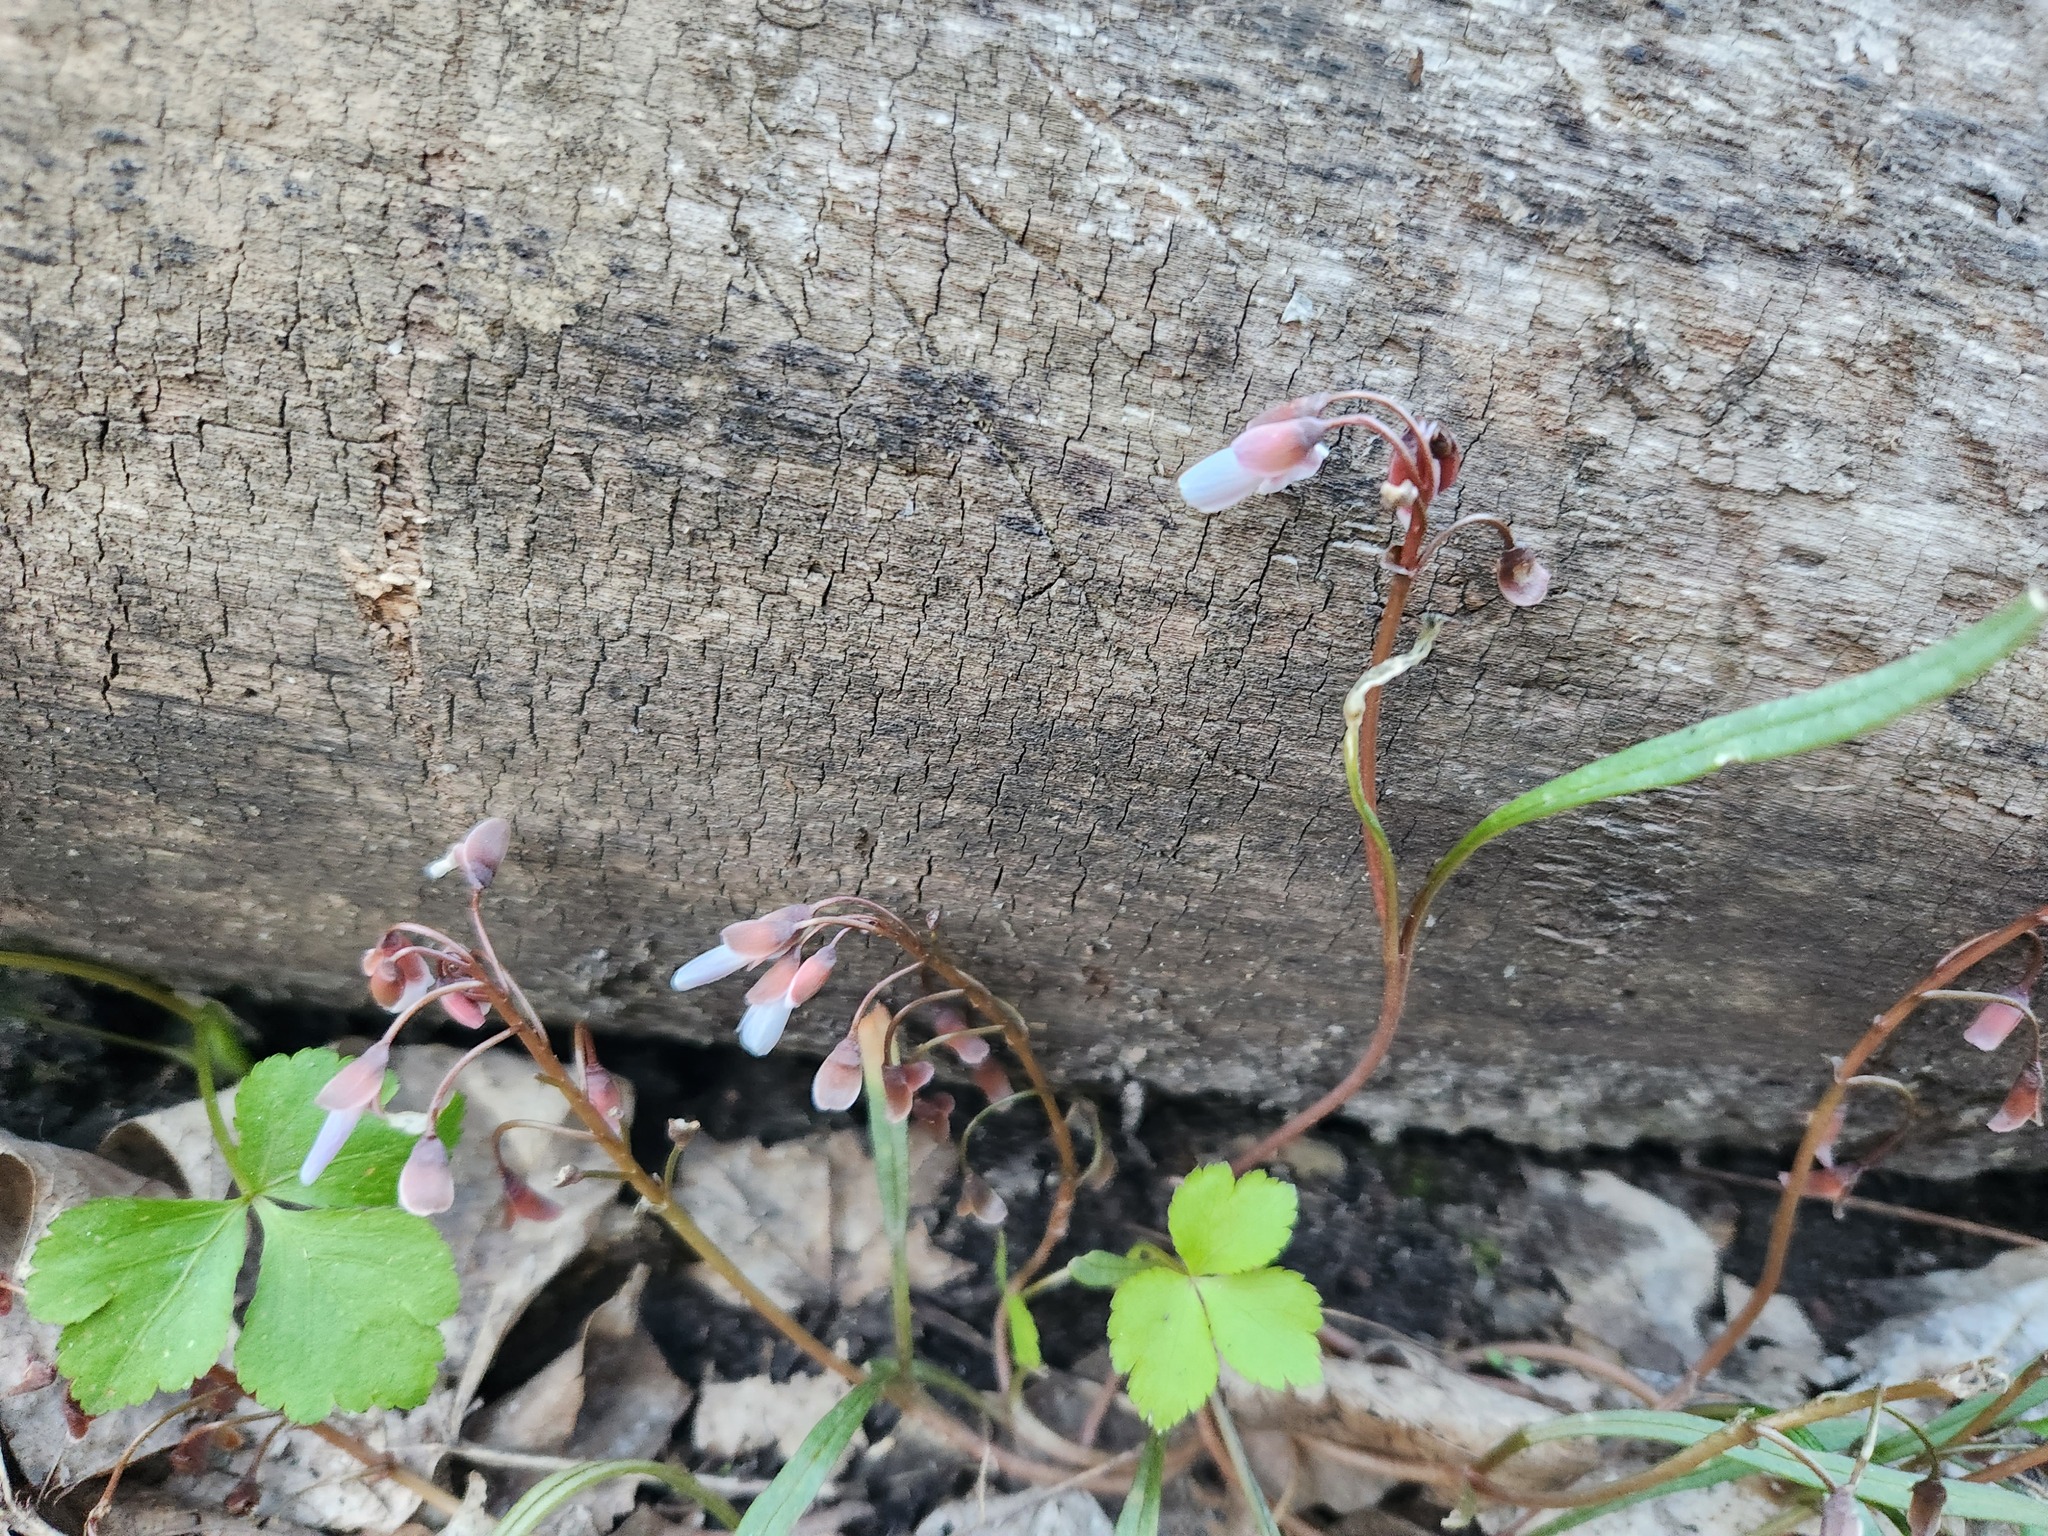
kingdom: Plantae
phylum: Tracheophyta
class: Magnoliopsida
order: Caryophyllales
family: Montiaceae
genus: Claytonia
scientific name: Claytonia virginica
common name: Virginia springbeauty
